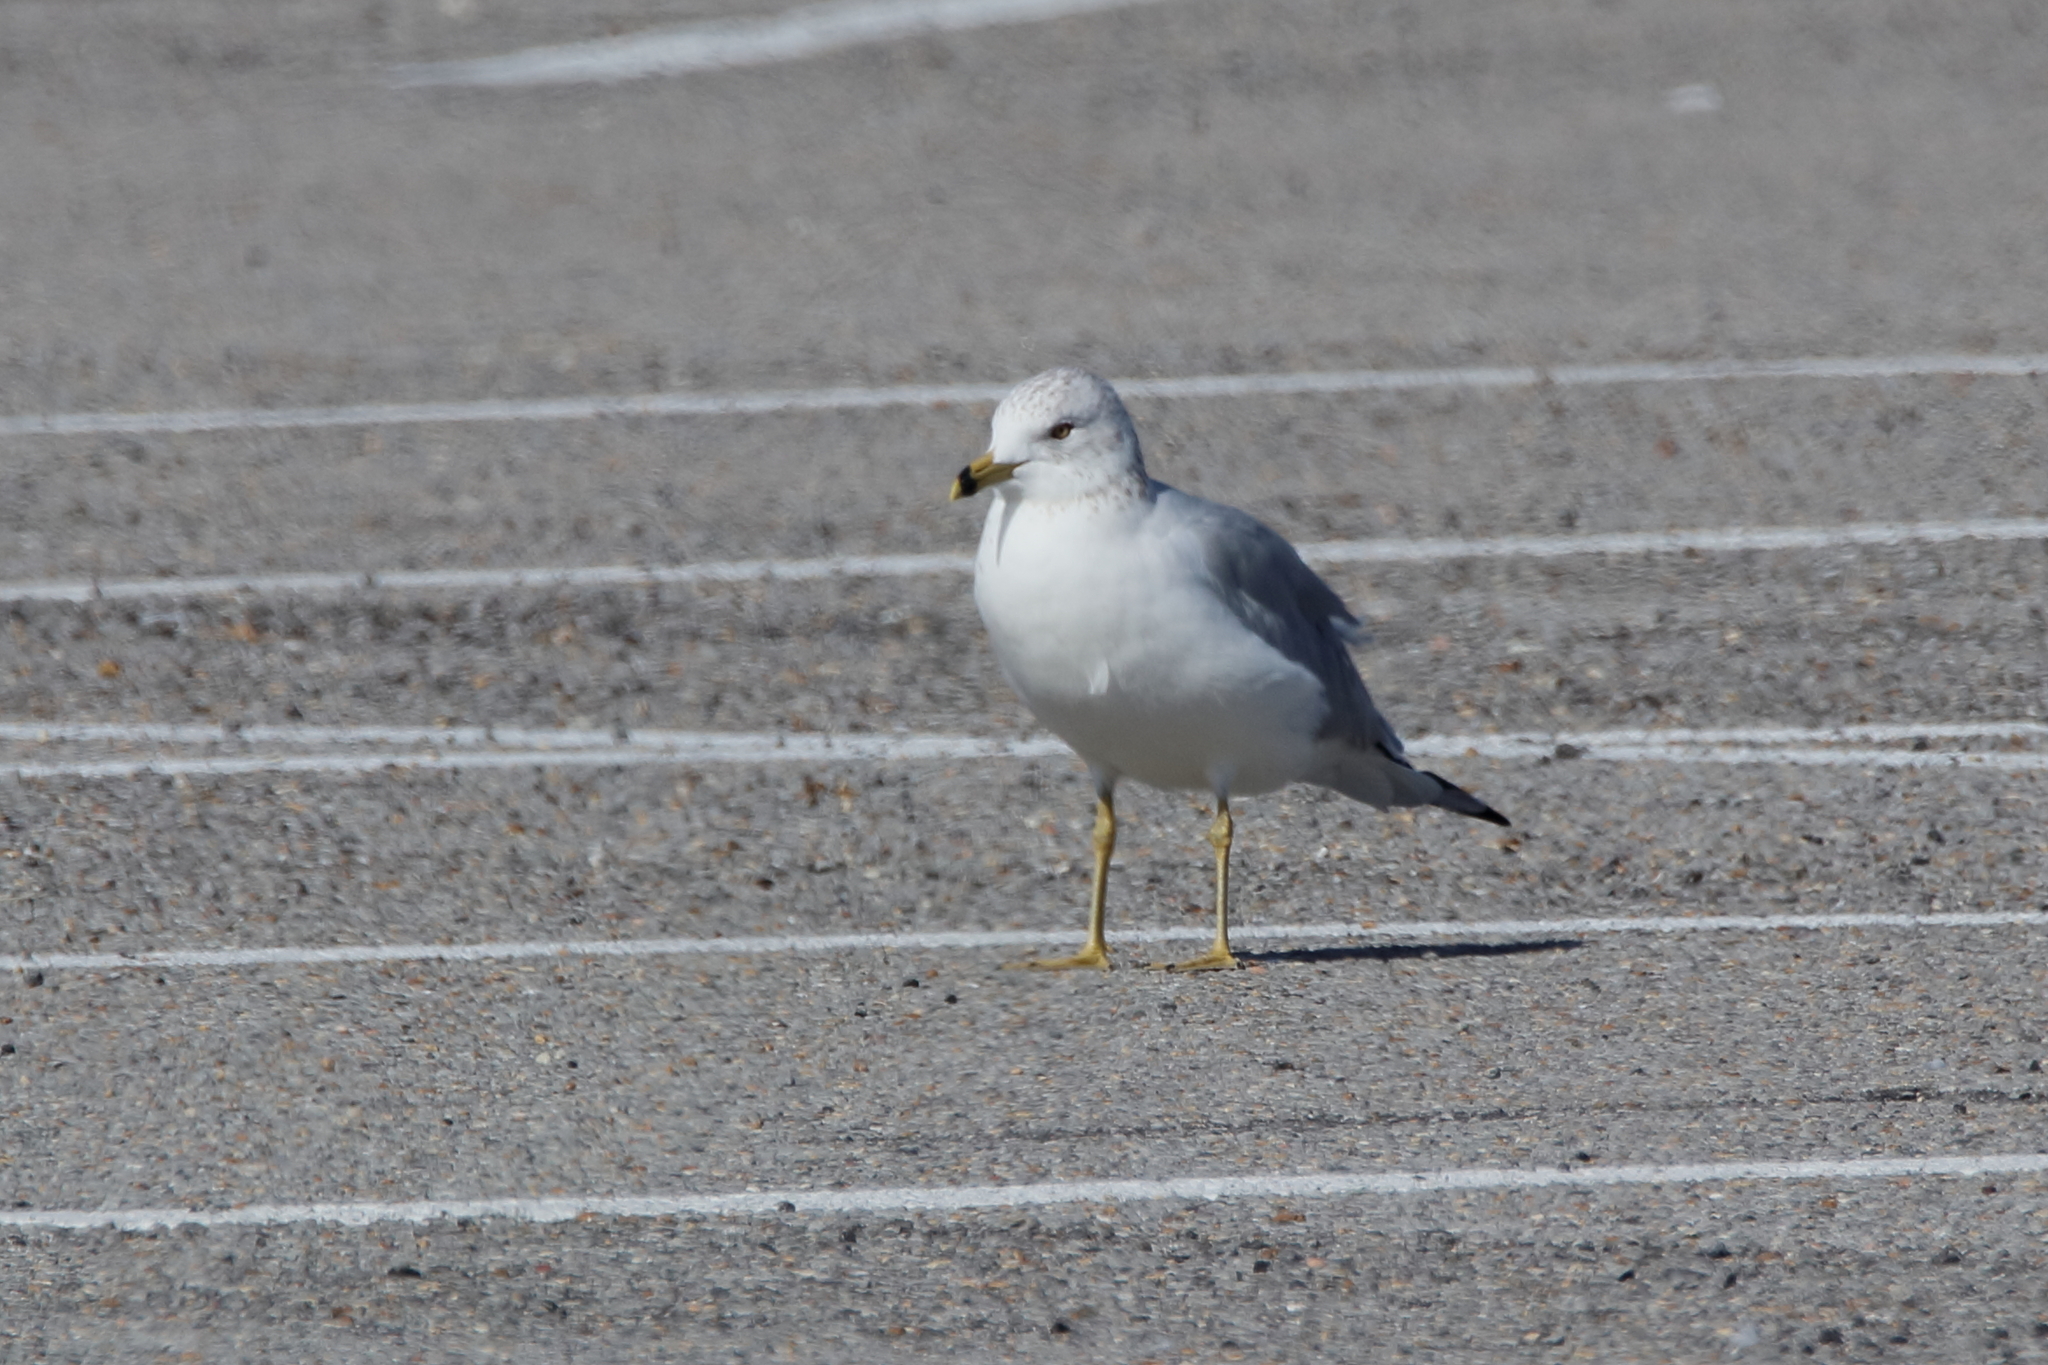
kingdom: Animalia
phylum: Chordata
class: Aves
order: Charadriiformes
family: Laridae
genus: Larus
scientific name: Larus delawarensis
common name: Ring-billed gull
